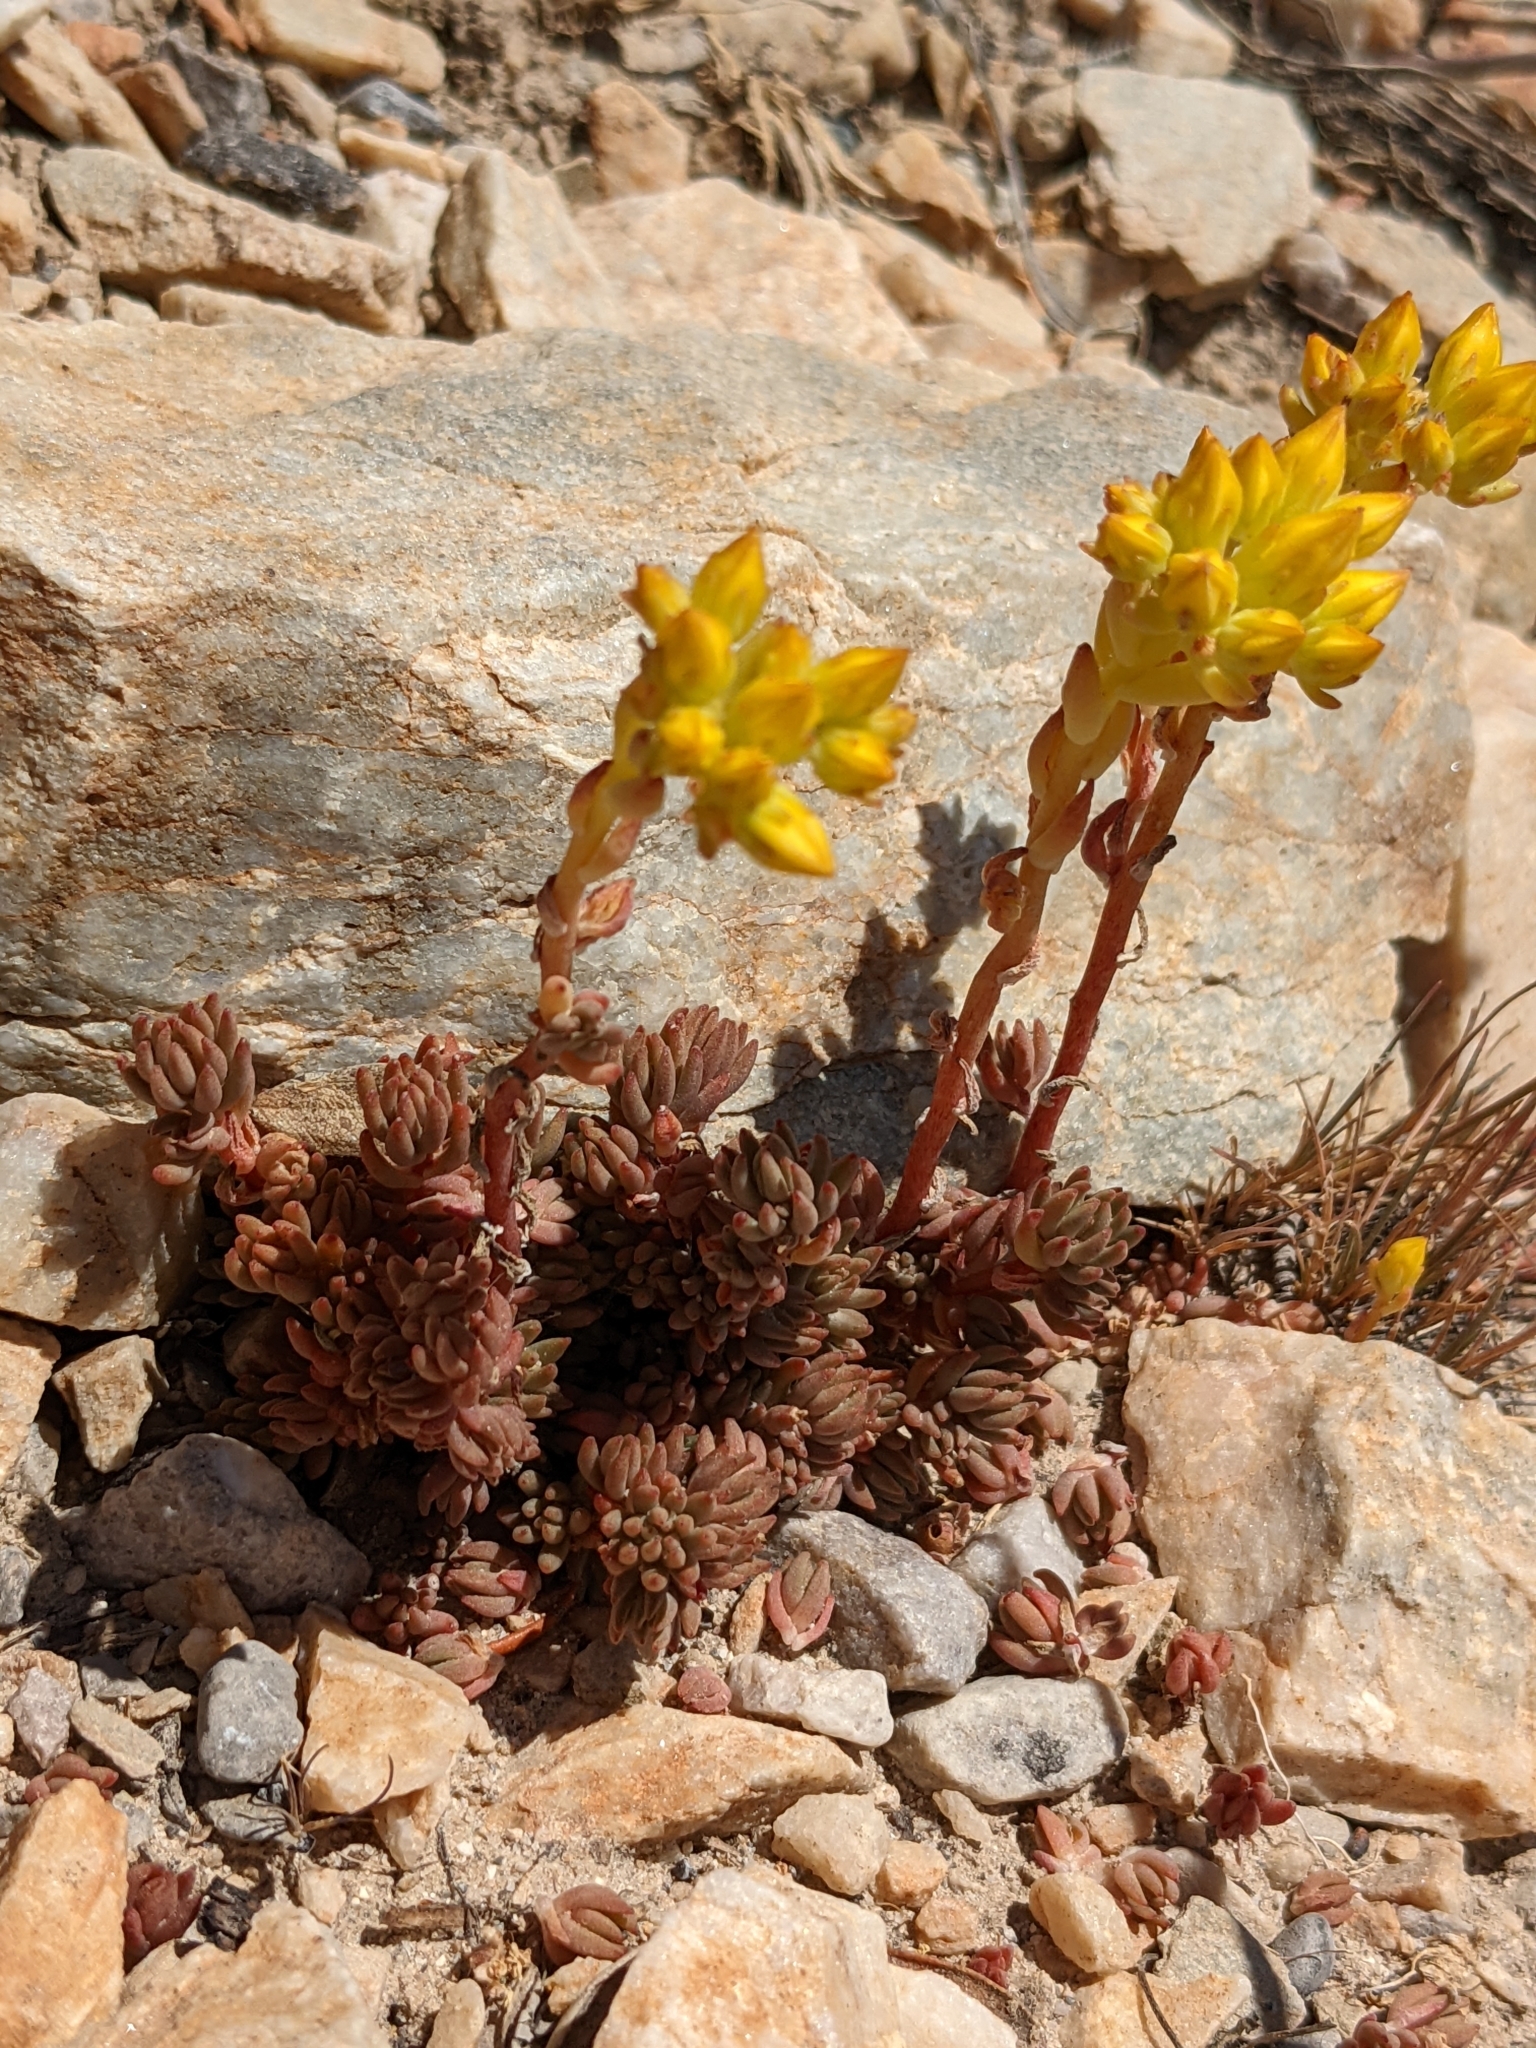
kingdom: Plantae
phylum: Tracheophyta
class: Magnoliopsida
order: Saxifragales
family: Crassulaceae
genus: Sedum
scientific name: Sedum lanceolatum
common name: Common stonecrop
